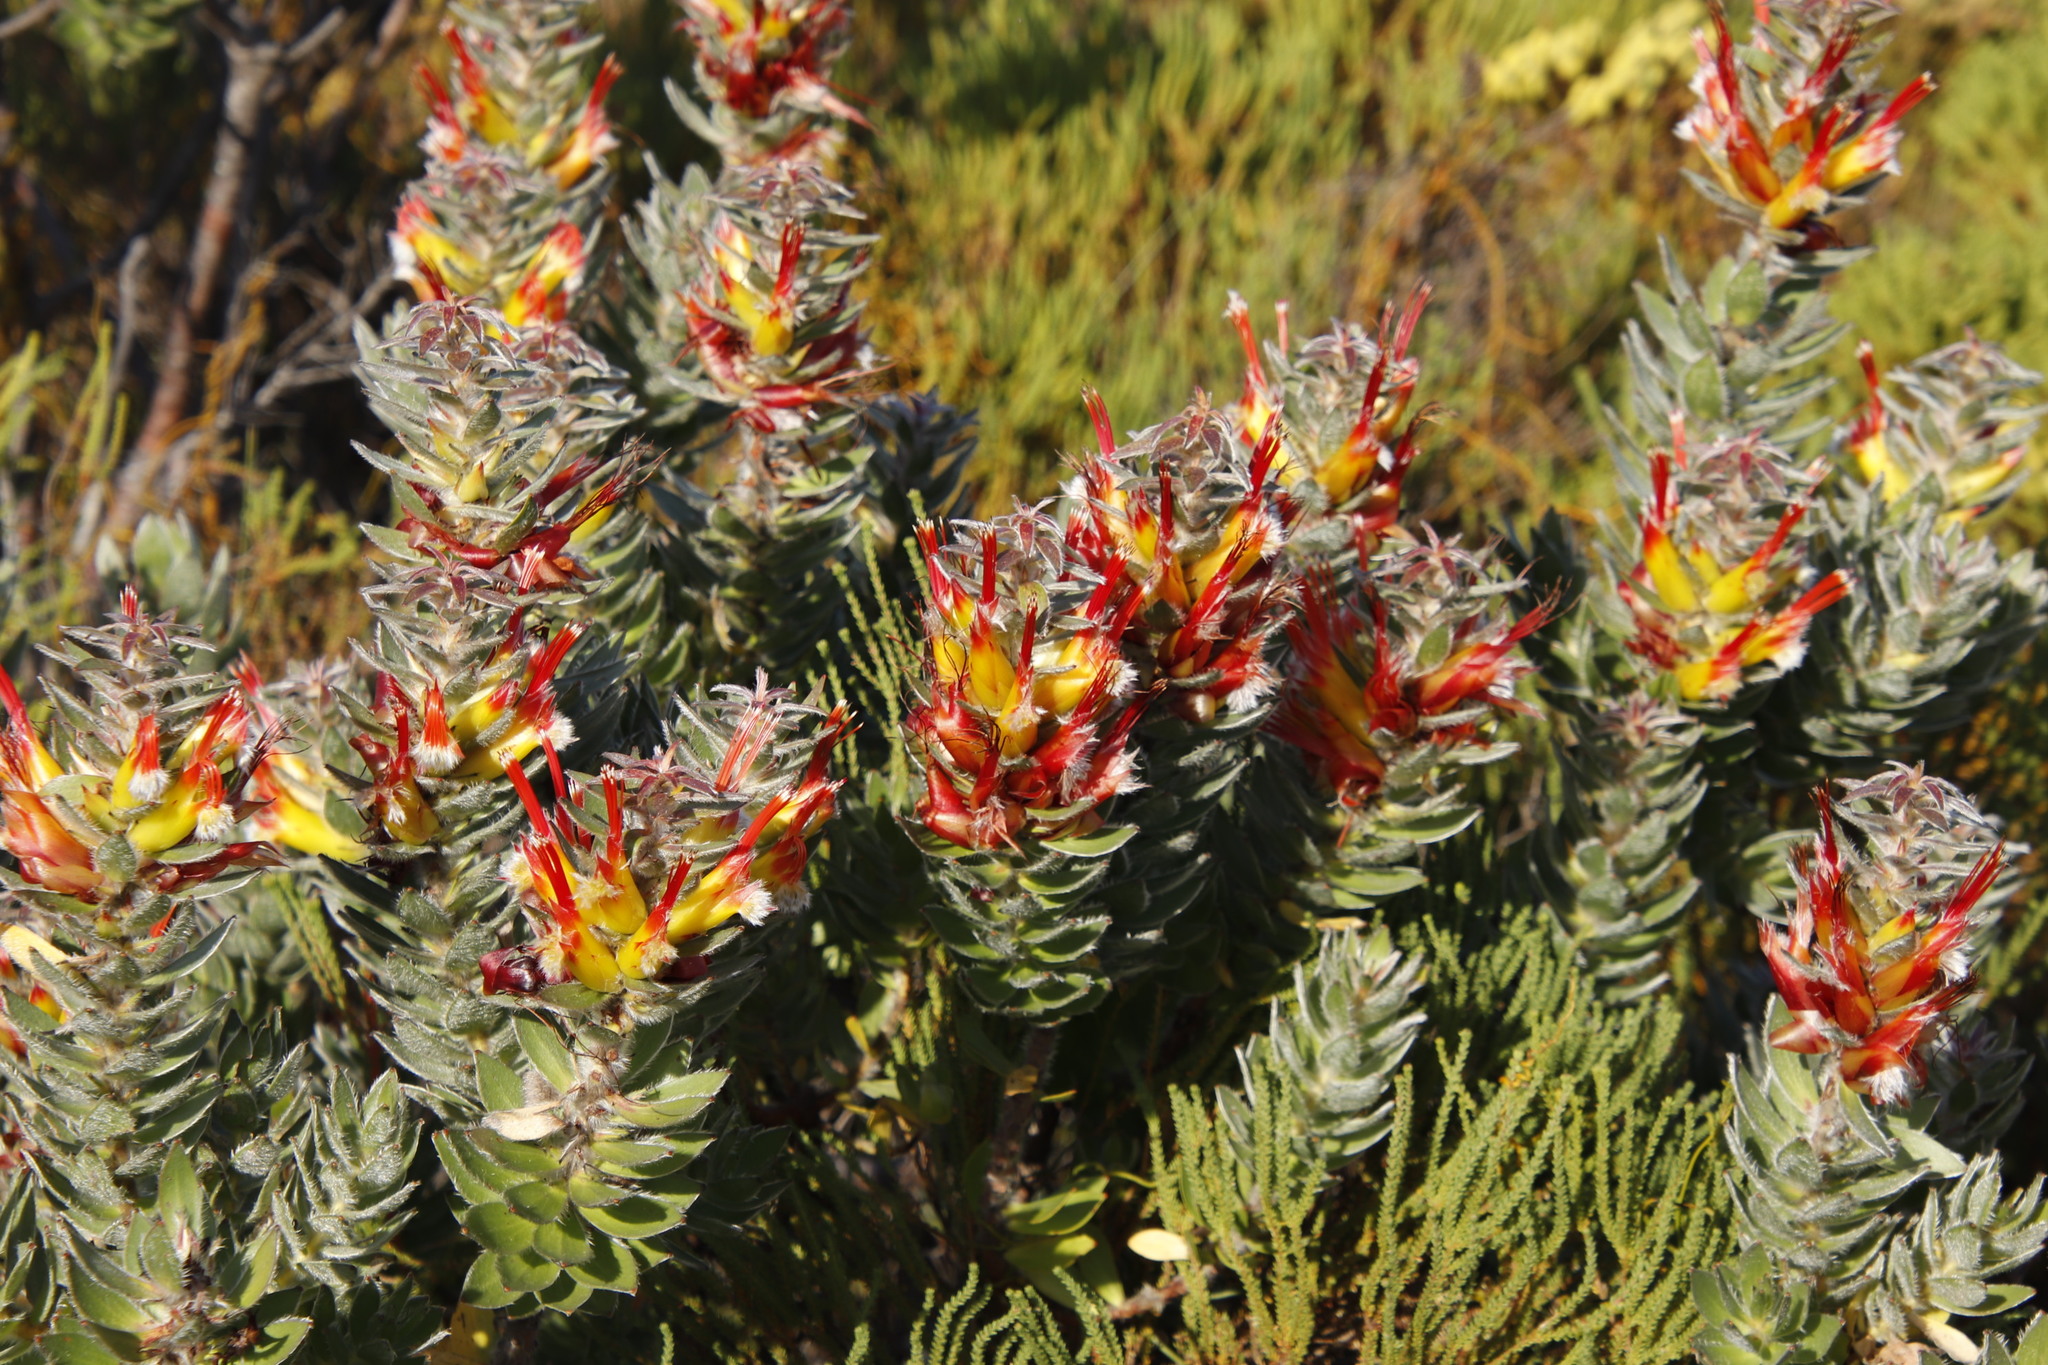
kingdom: Plantae
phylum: Tracheophyta
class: Magnoliopsida
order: Proteales
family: Proteaceae
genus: Mimetes
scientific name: Mimetes hirtus
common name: Marsh pagoda
